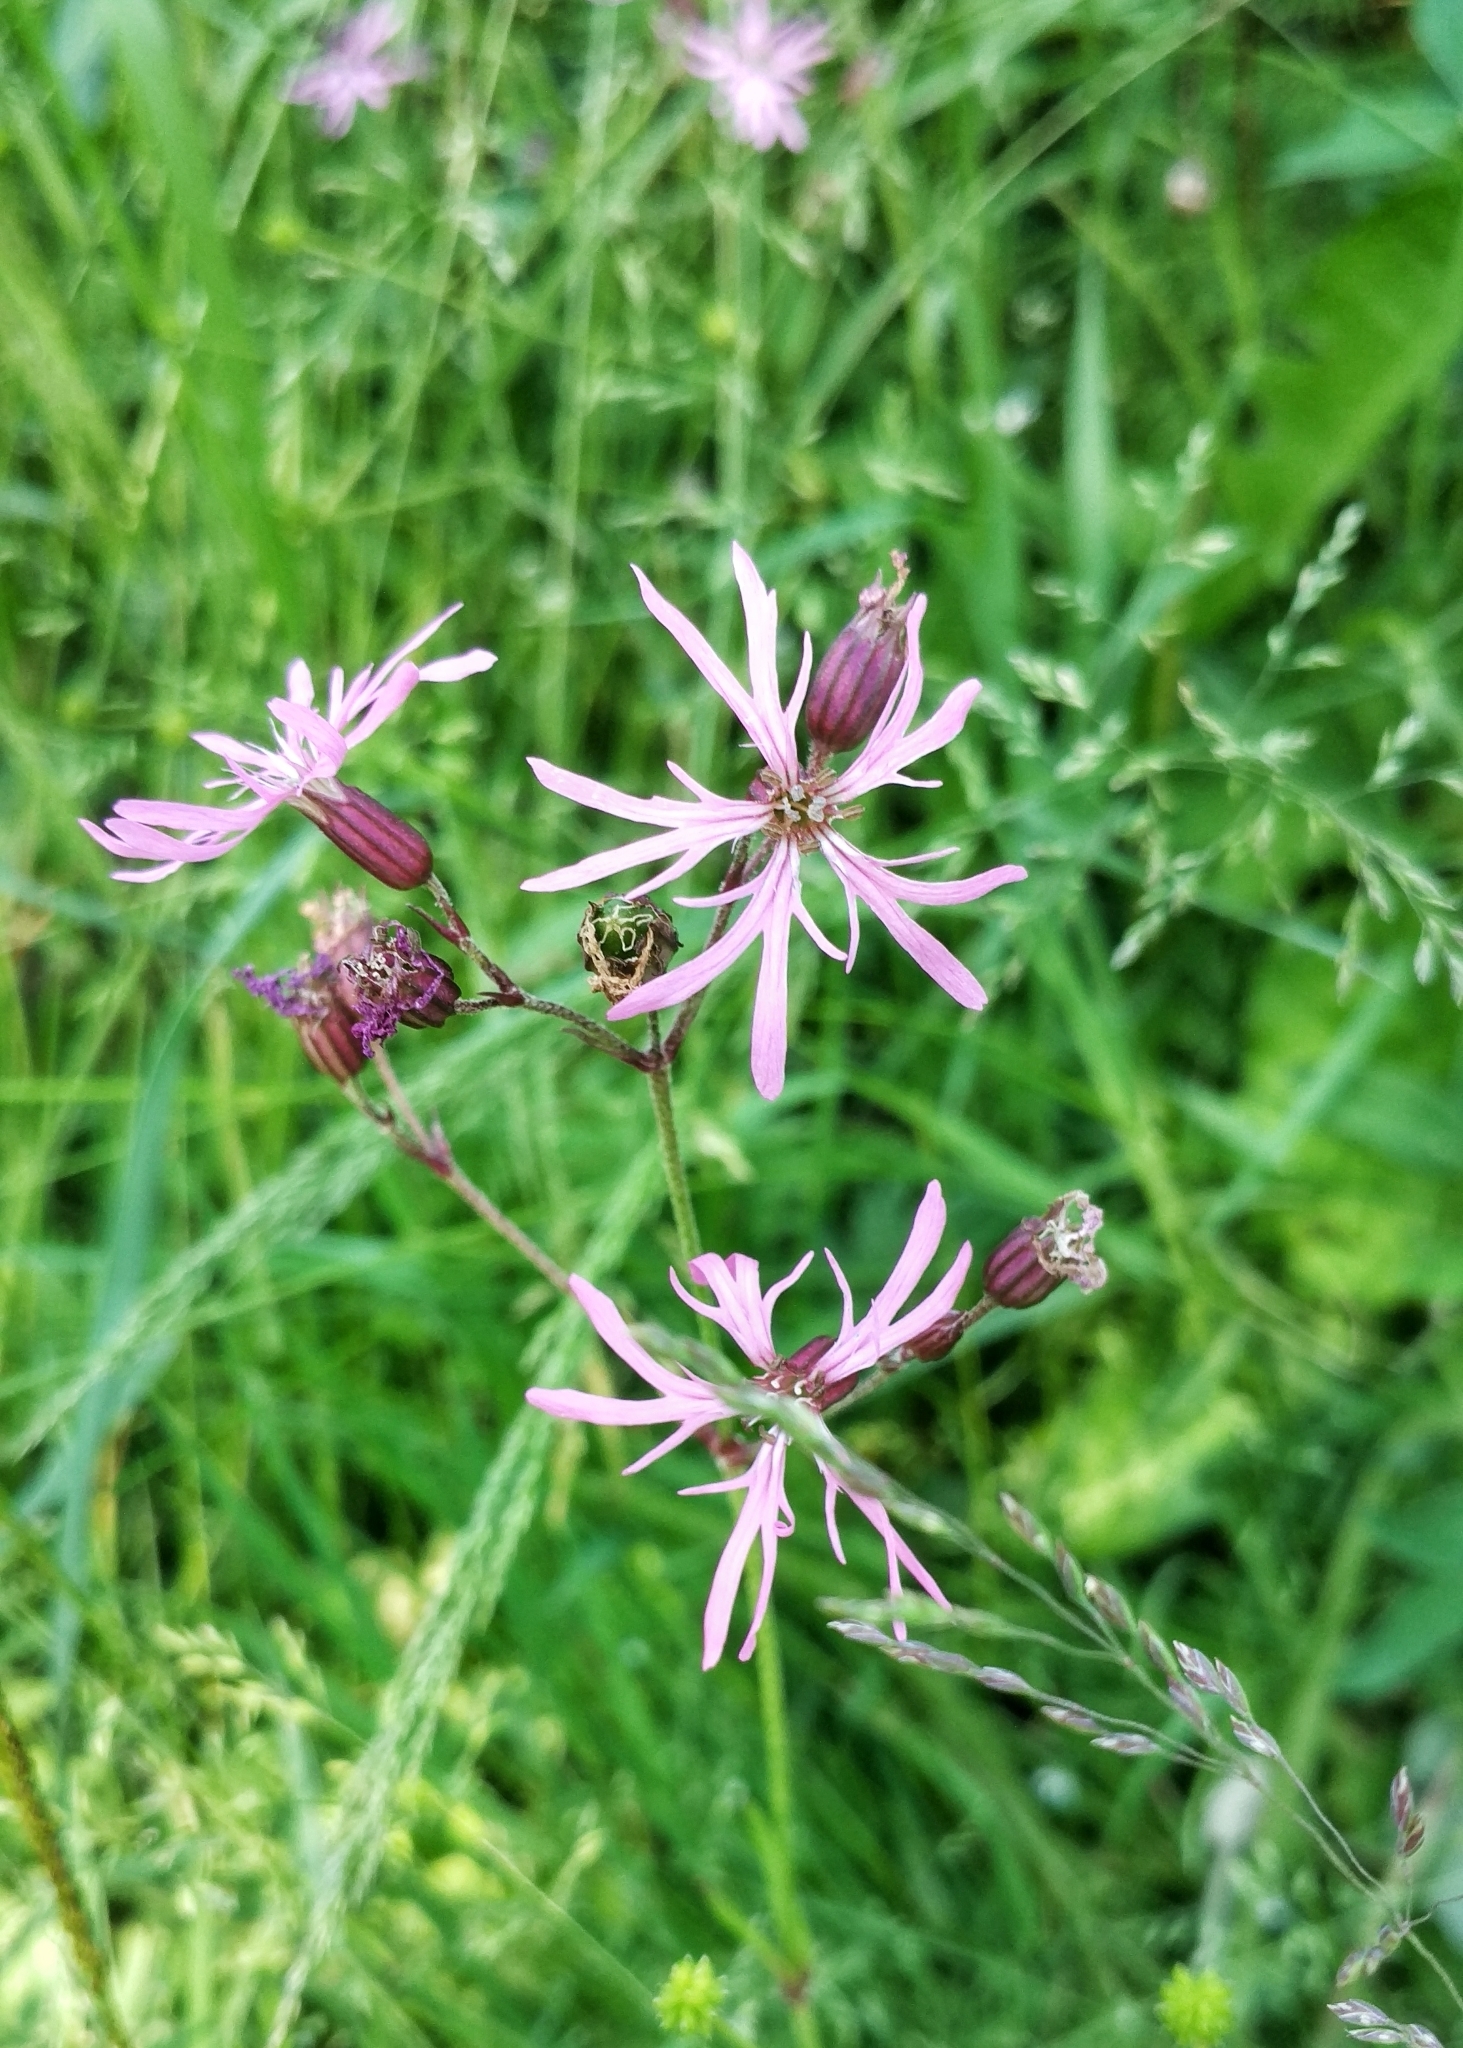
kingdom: Plantae
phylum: Tracheophyta
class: Magnoliopsida
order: Caryophyllales
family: Caryophyllaceae
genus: Silene
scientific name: Silene flos-cuculi
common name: Ragged-robin
